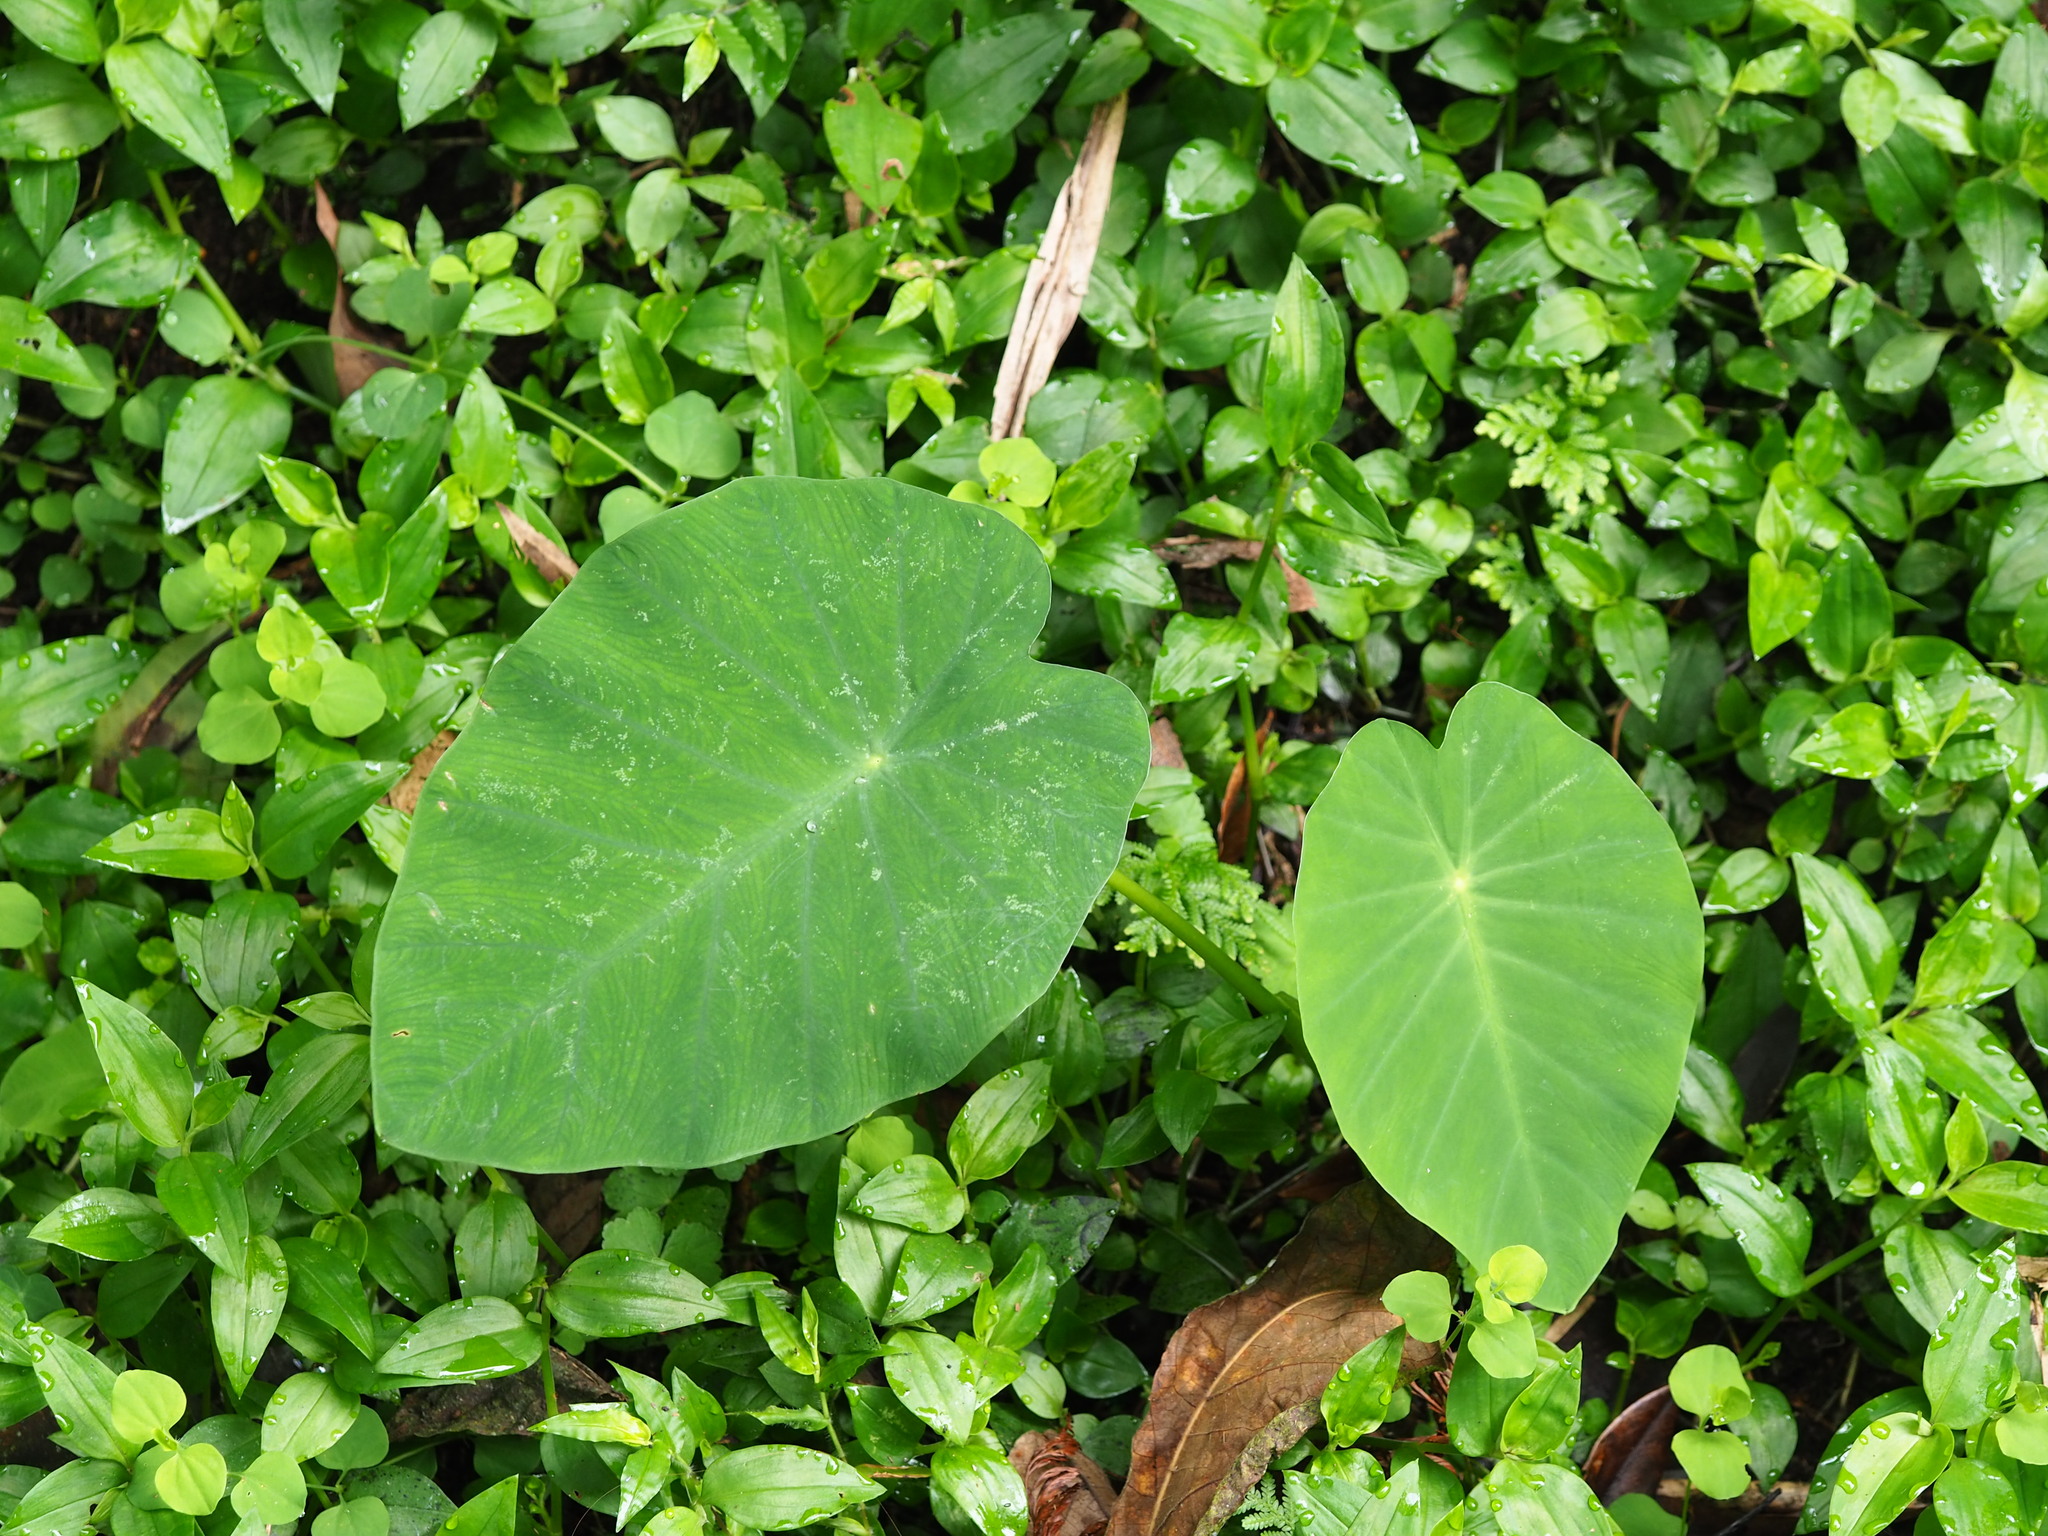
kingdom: Plantae
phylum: Tracheophyta
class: Liliopsida
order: Alismatales
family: Araceae
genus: Colocasia
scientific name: Colocasia esculenta
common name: Taro
